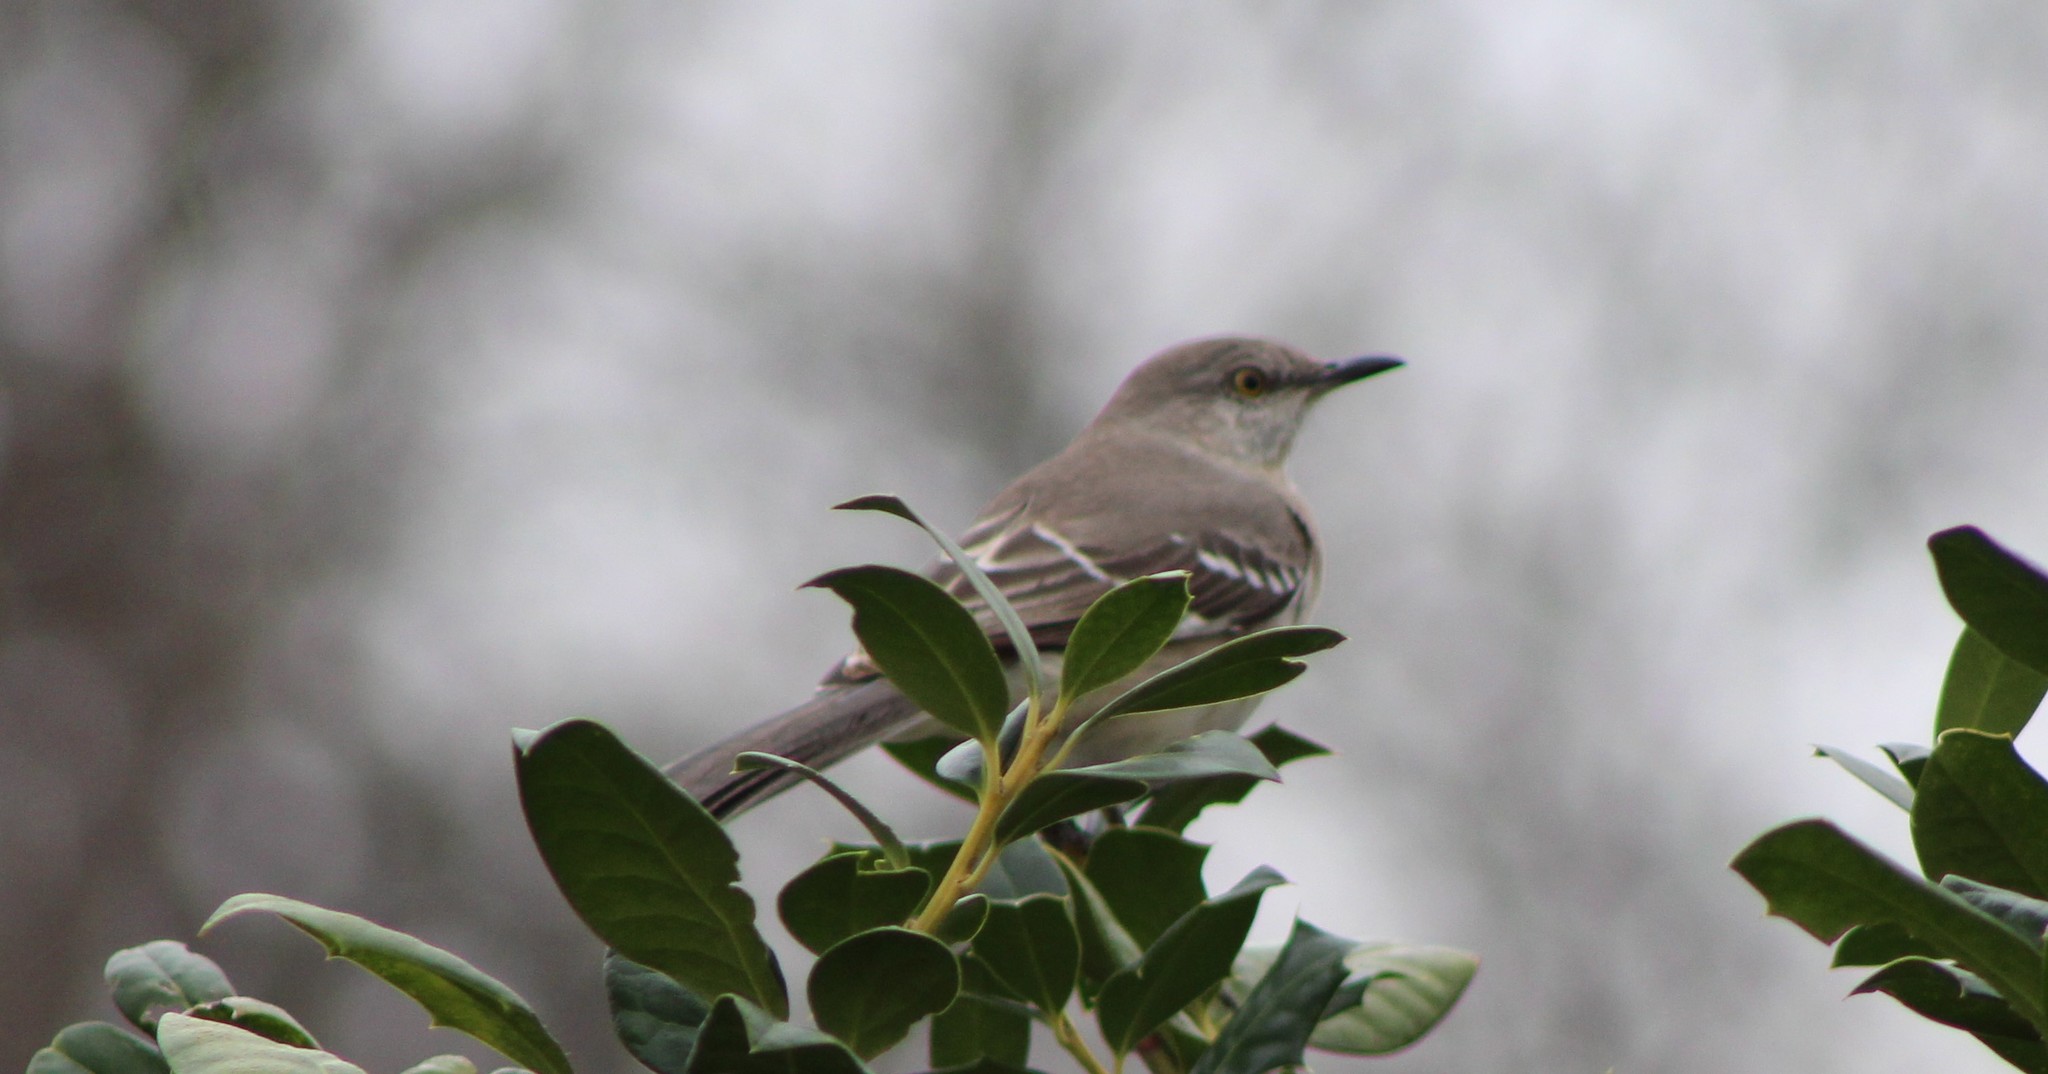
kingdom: Animalia
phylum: Chordata
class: Aves
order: Passeriformes
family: Mimidae
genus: Mimus
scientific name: Mimus polyglottos
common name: Northern mockingbird
